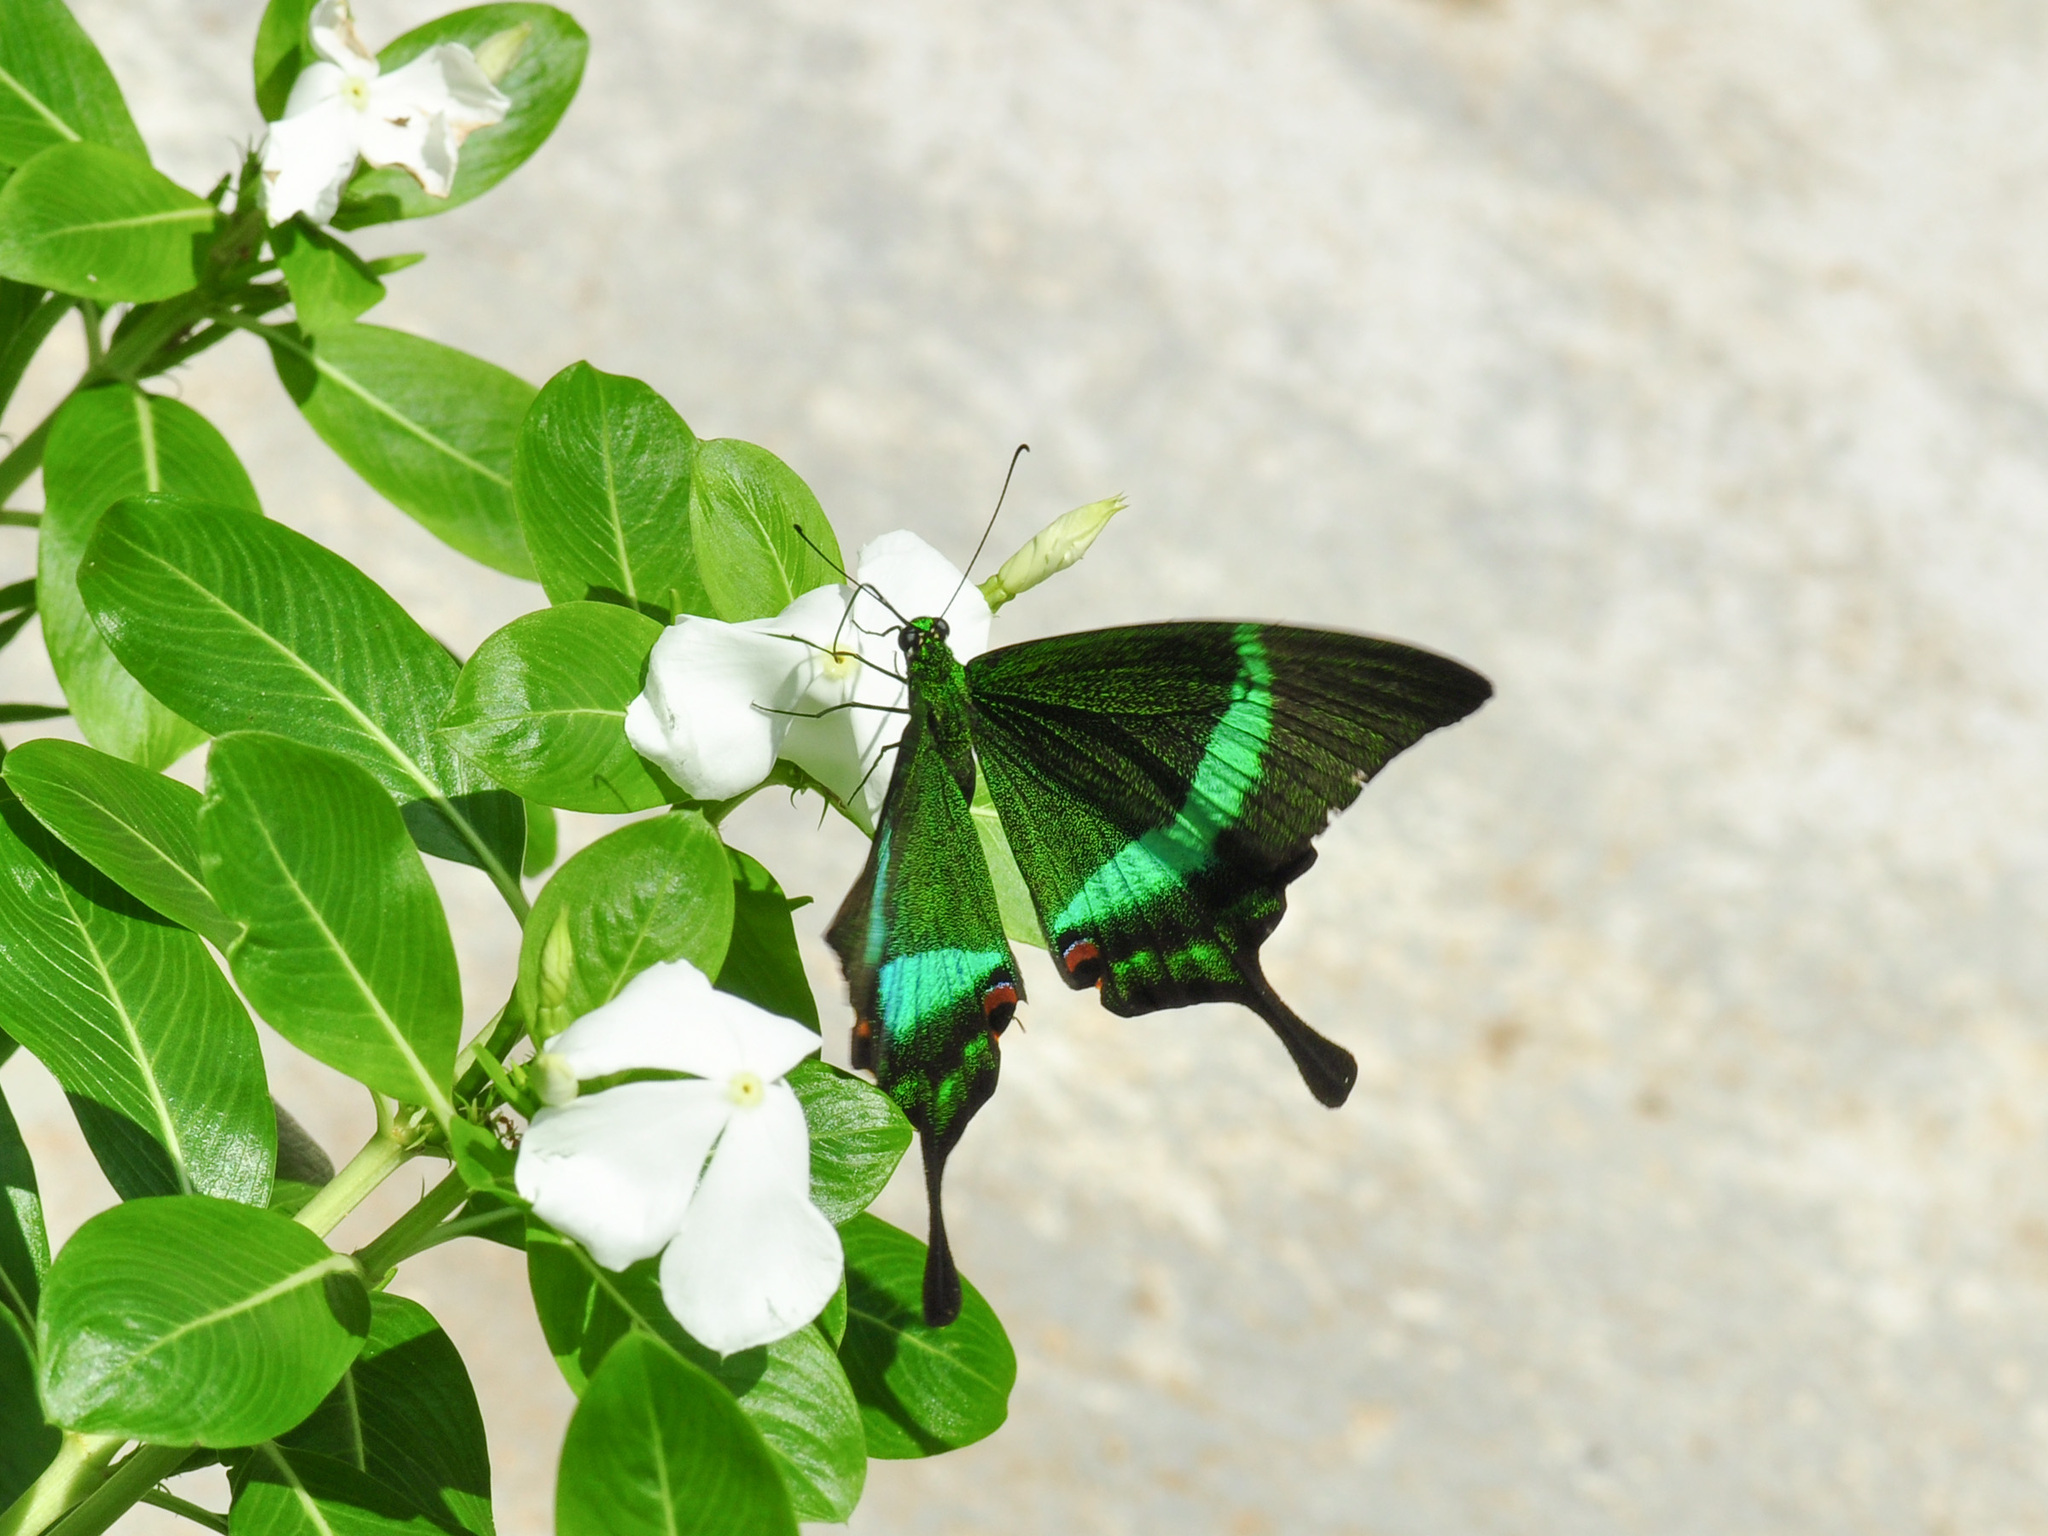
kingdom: Animalia
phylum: Arthropoda
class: Insecta
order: Lepidoptera
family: Papilionidae
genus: Papilio
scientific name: Papilio palinurus
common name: Banded peacock
